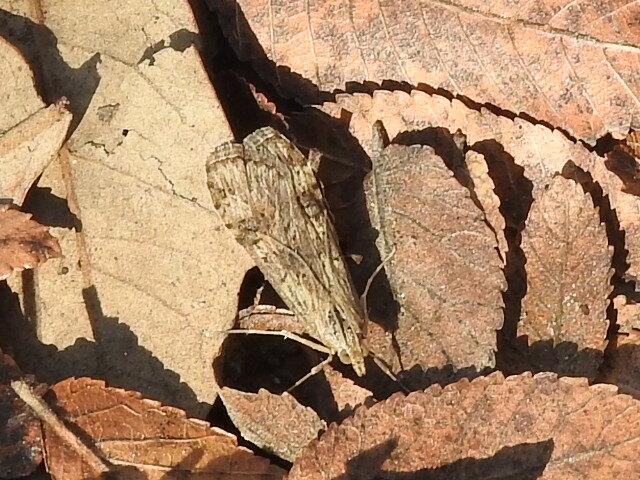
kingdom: Animalia
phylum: Arthropoda
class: Insecta
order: Lepidoptera
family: Crambidae
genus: Nomophila
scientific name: Nomophila nearctica
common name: American rush veneer
